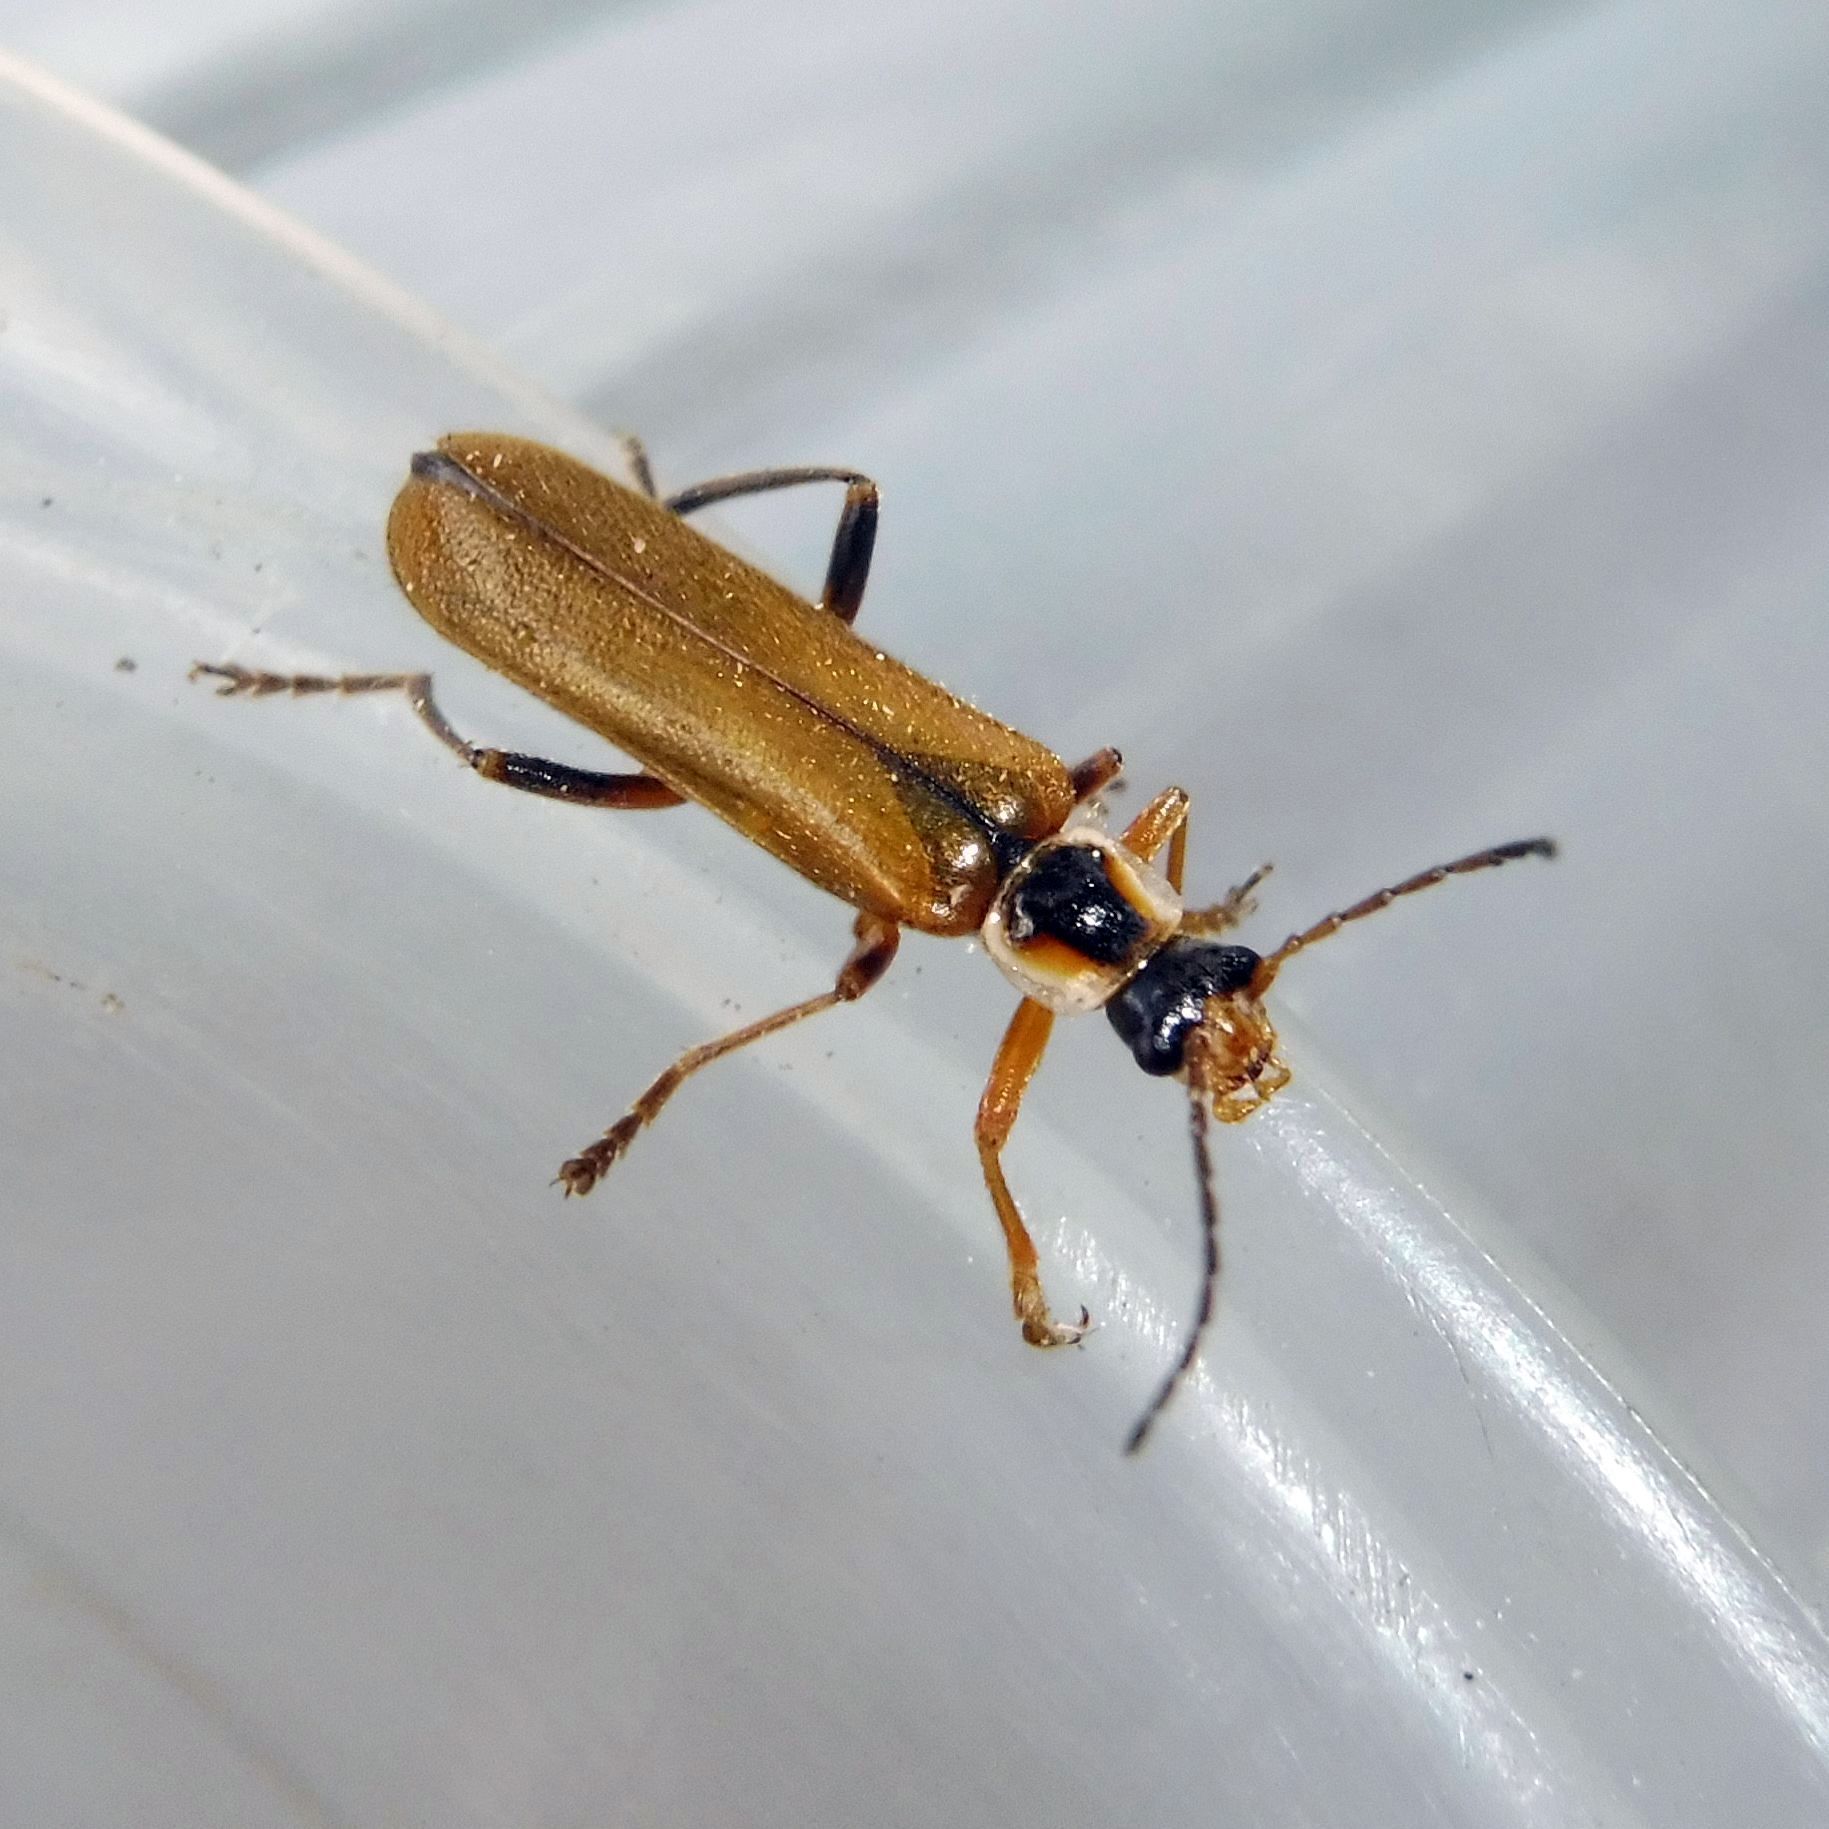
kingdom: Animalia
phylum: Arthropoda
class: Insecta
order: Coleoptera
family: Cantharidae
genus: Cantharis
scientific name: Cantharis decipiens
